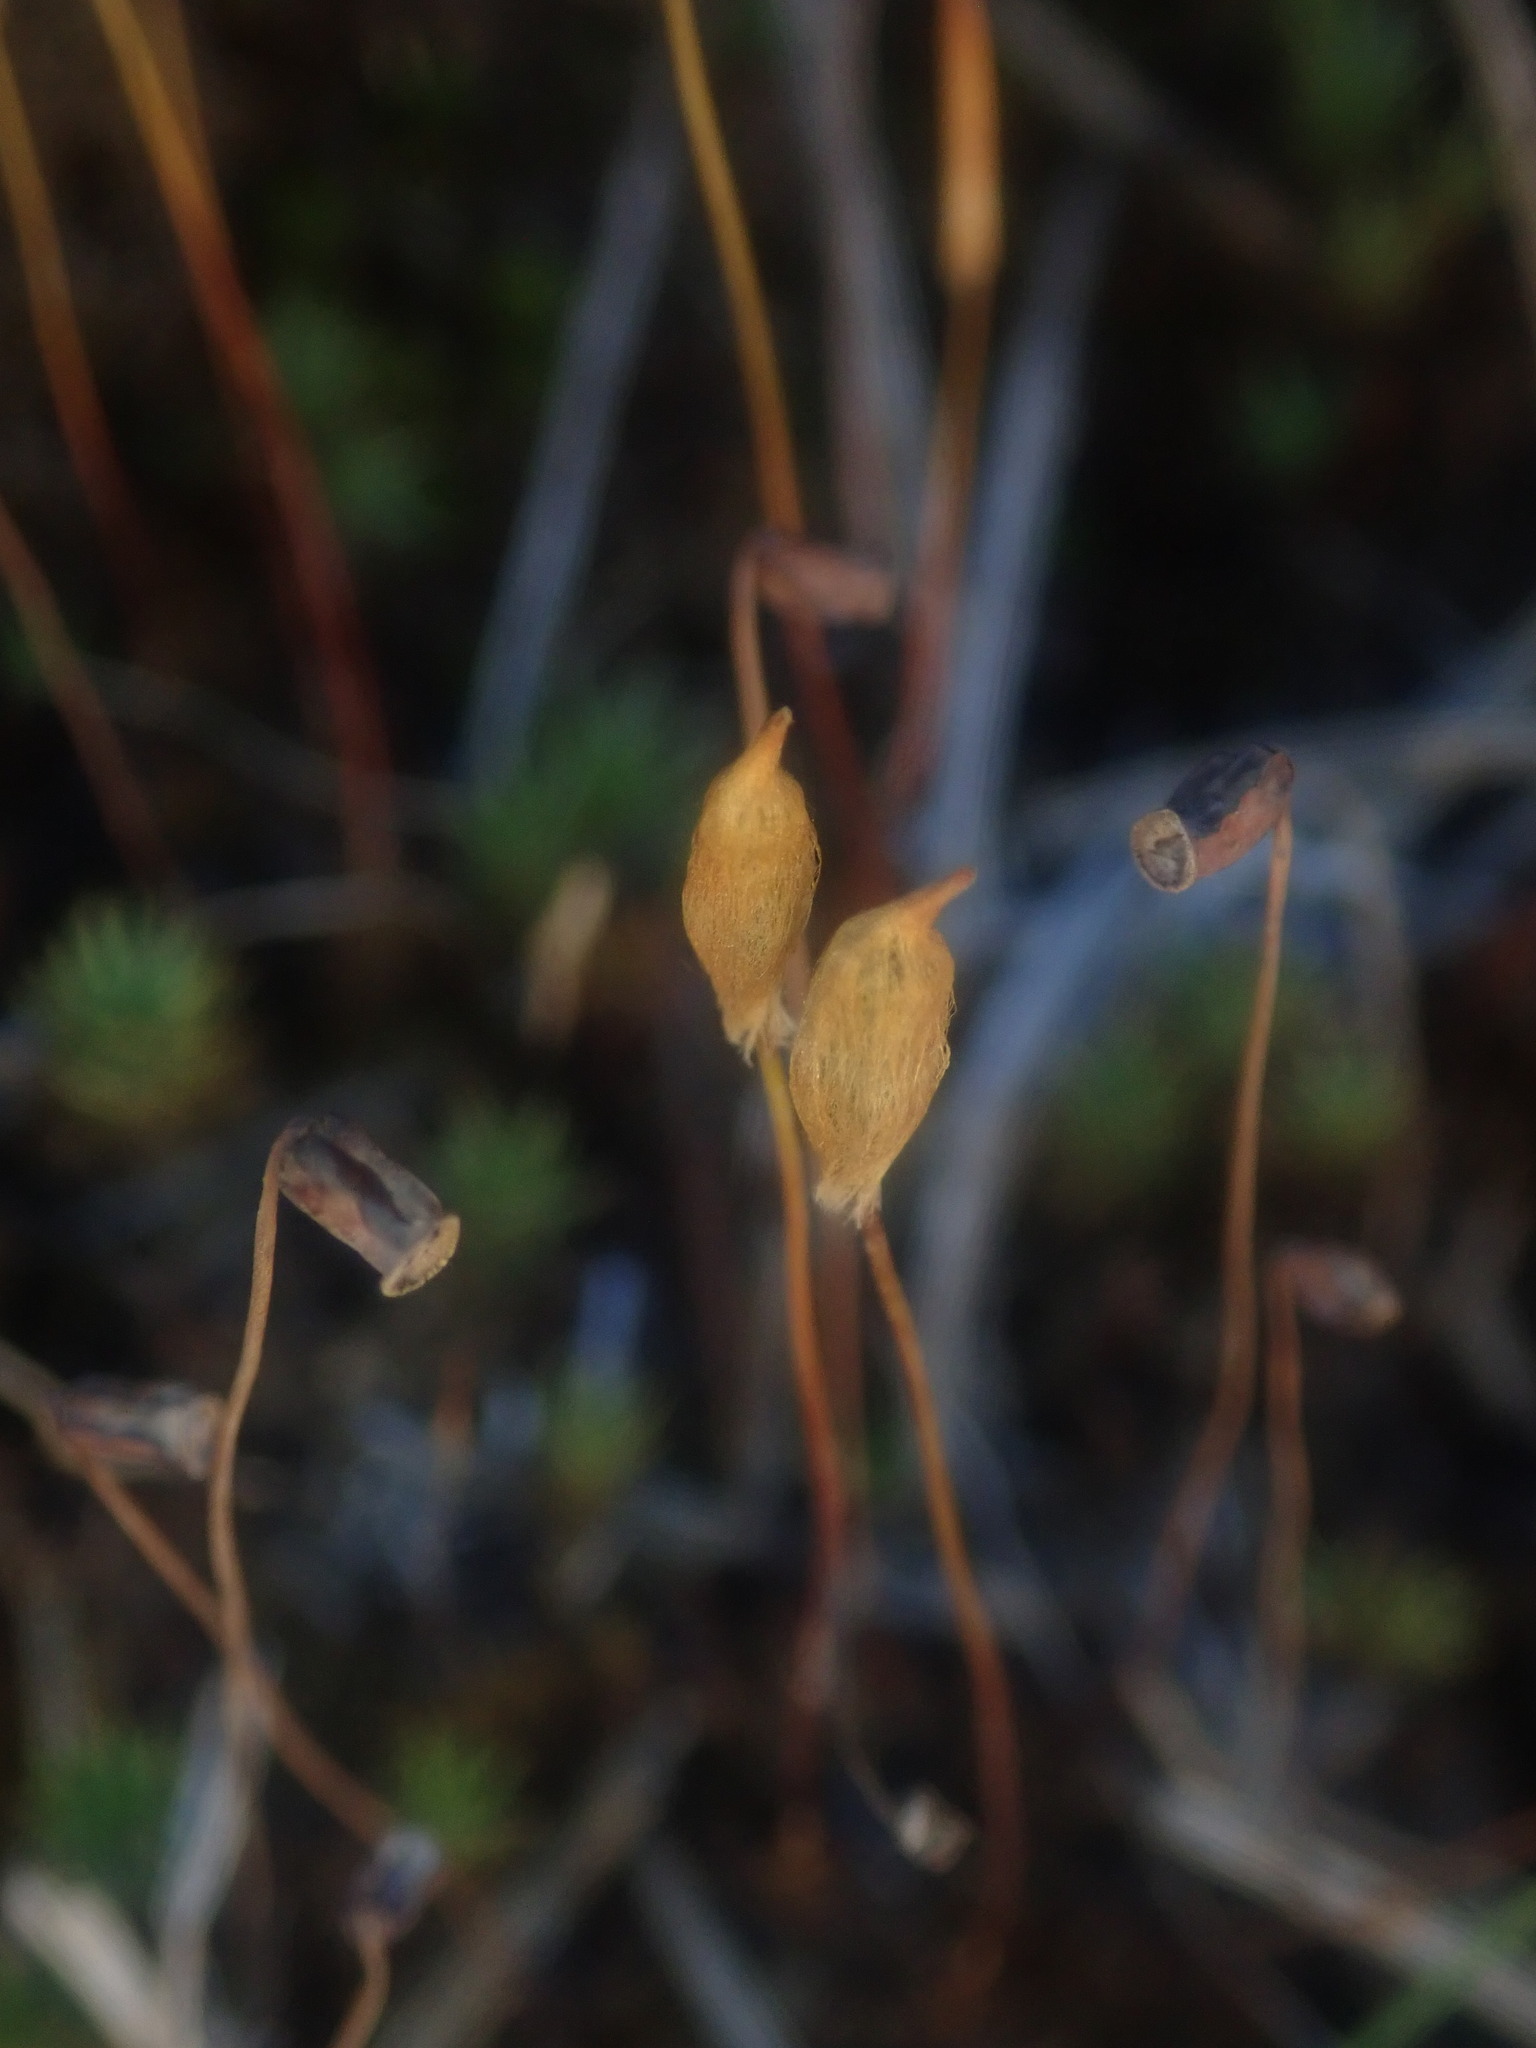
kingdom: Plantae
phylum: Bryophyta
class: Polytrichopsida
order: Polytrichales
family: Polytrichaceae
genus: Polytrichum
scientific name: Polytrichum juniperinum
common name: Juniper haircap moss
